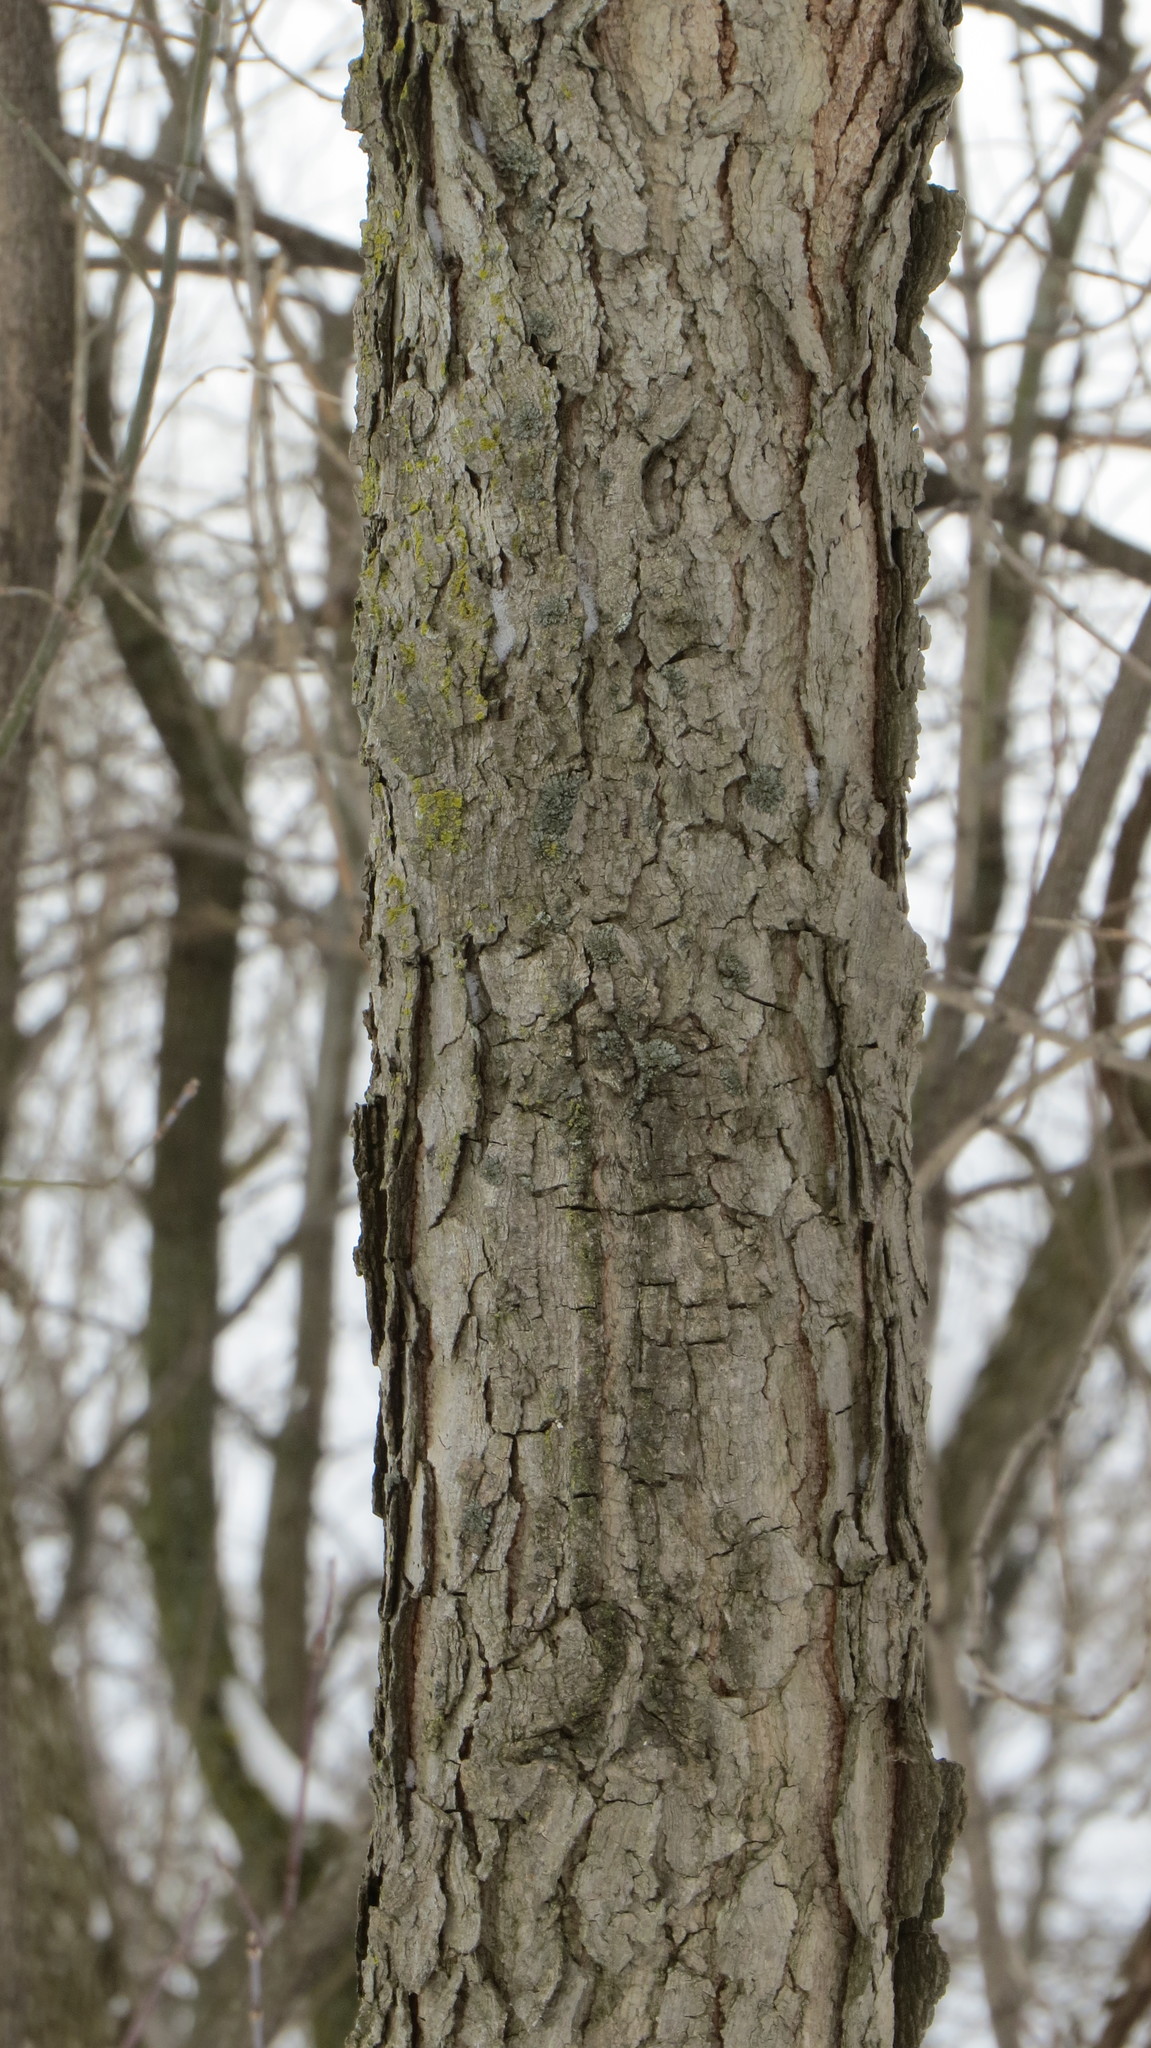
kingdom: Plantae
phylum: Tracheophyta
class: Magnoliopsida
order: Fabales
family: Fabaceae
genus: Gymnocladus
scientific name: Gymnocladus dioicus
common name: Kentucky coffee-tree
